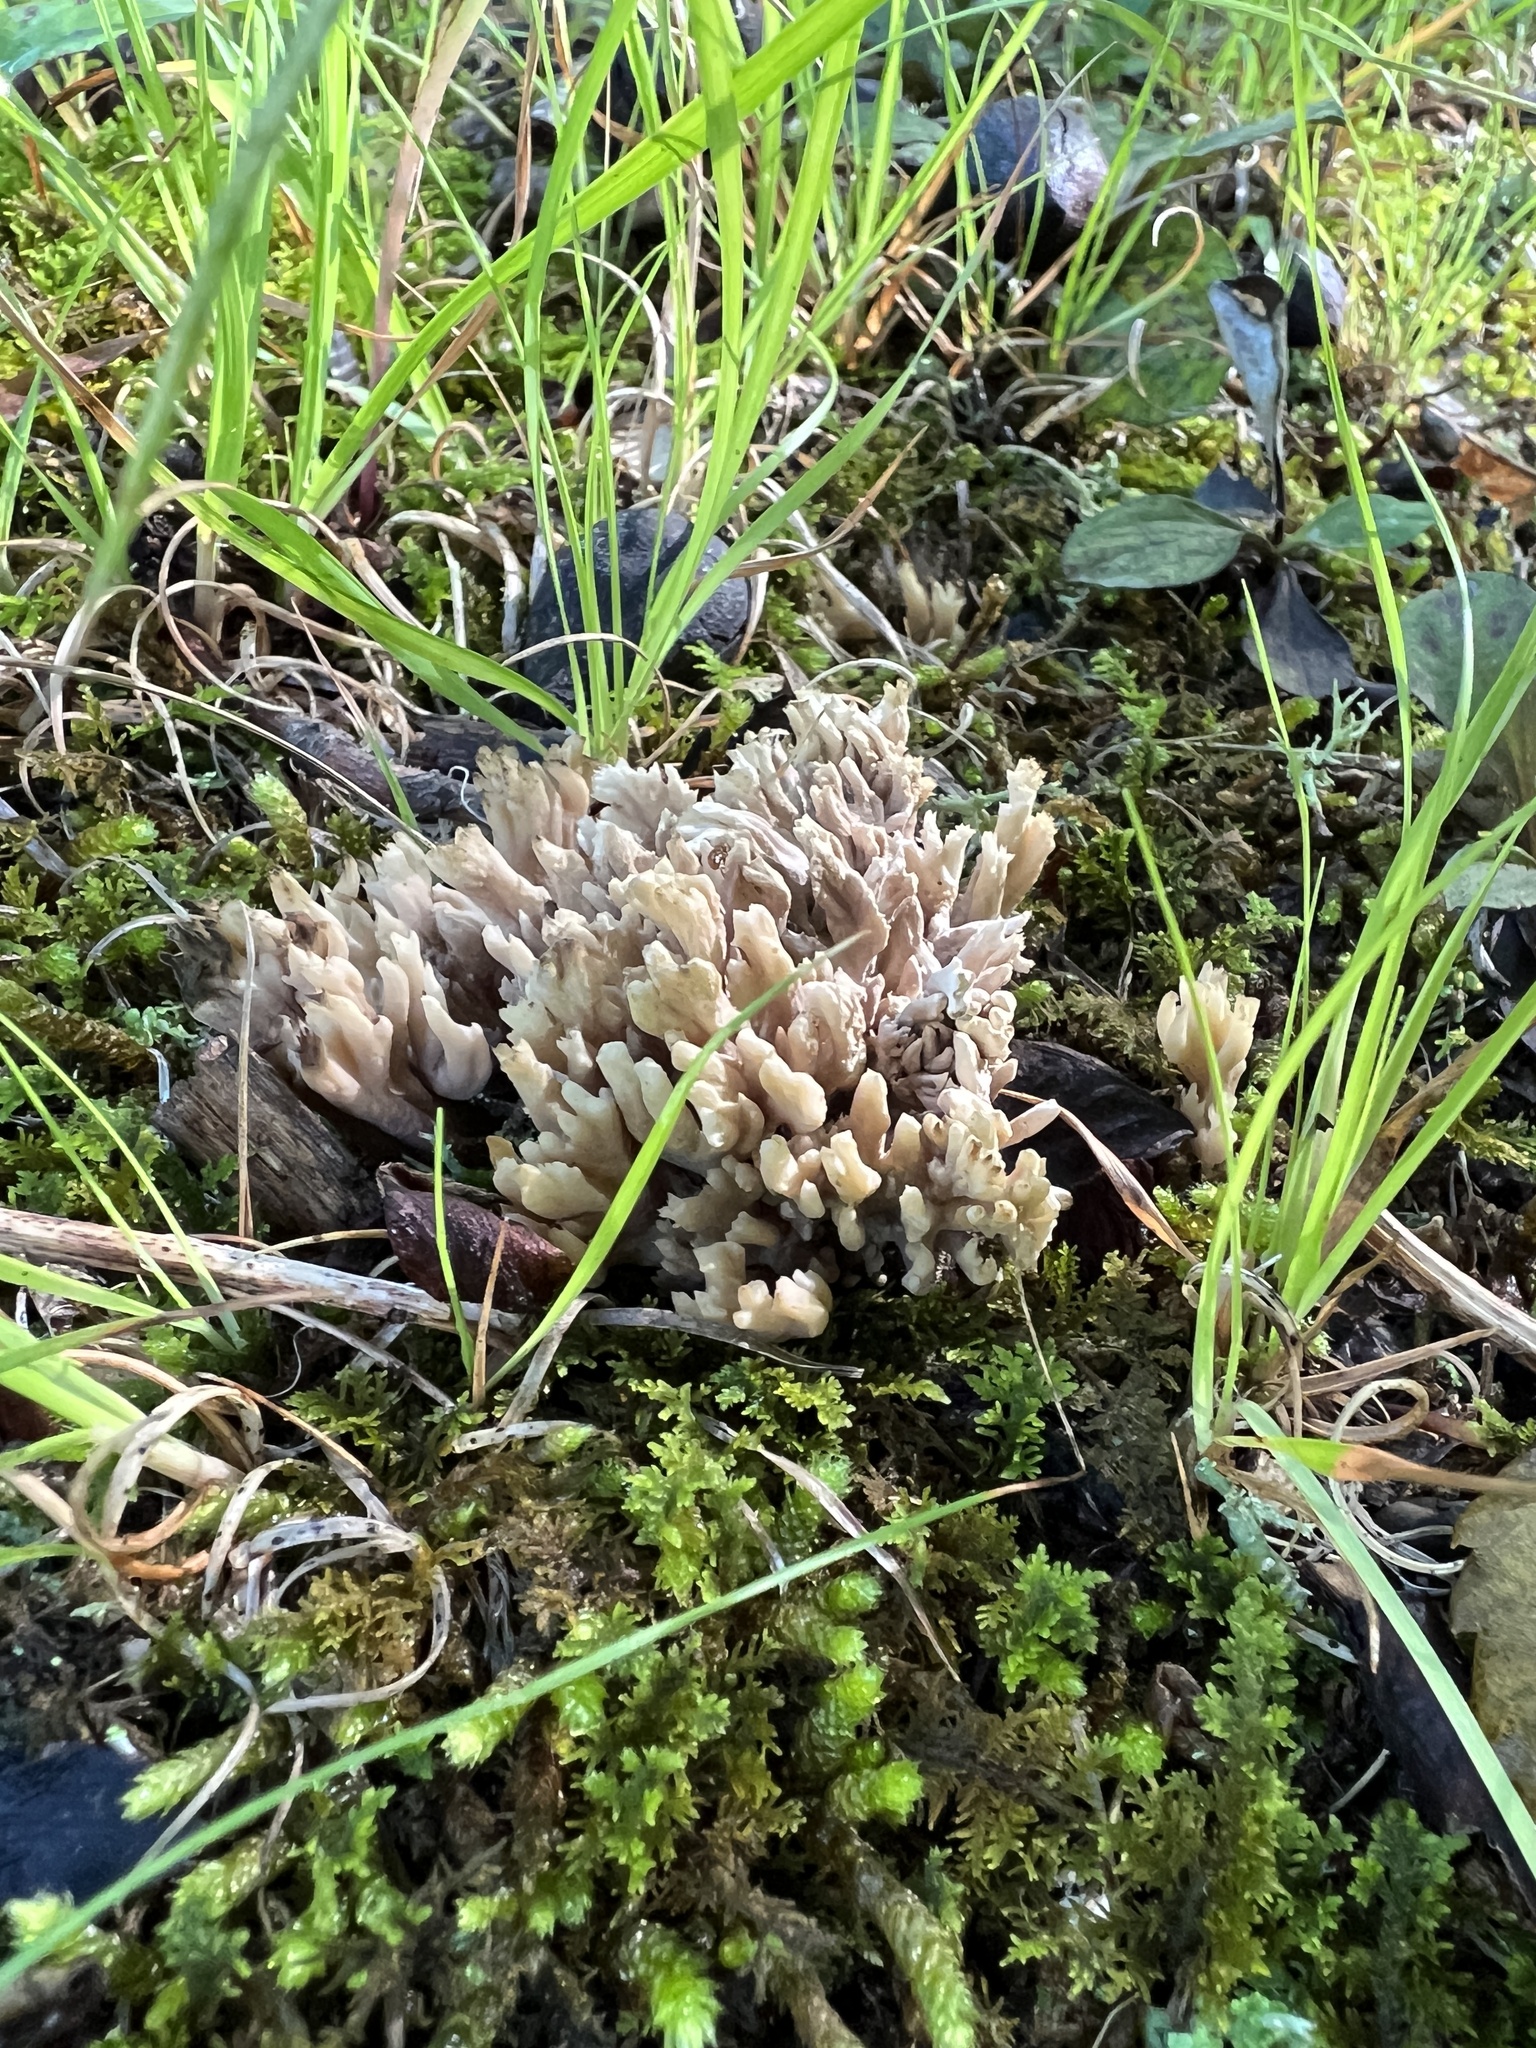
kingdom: Fungi
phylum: Basidiomycota
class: Agaricomycetes
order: Cantharellales
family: Hydnaceae
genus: Clavulina
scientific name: Clavulina cinerea
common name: Grey coral
